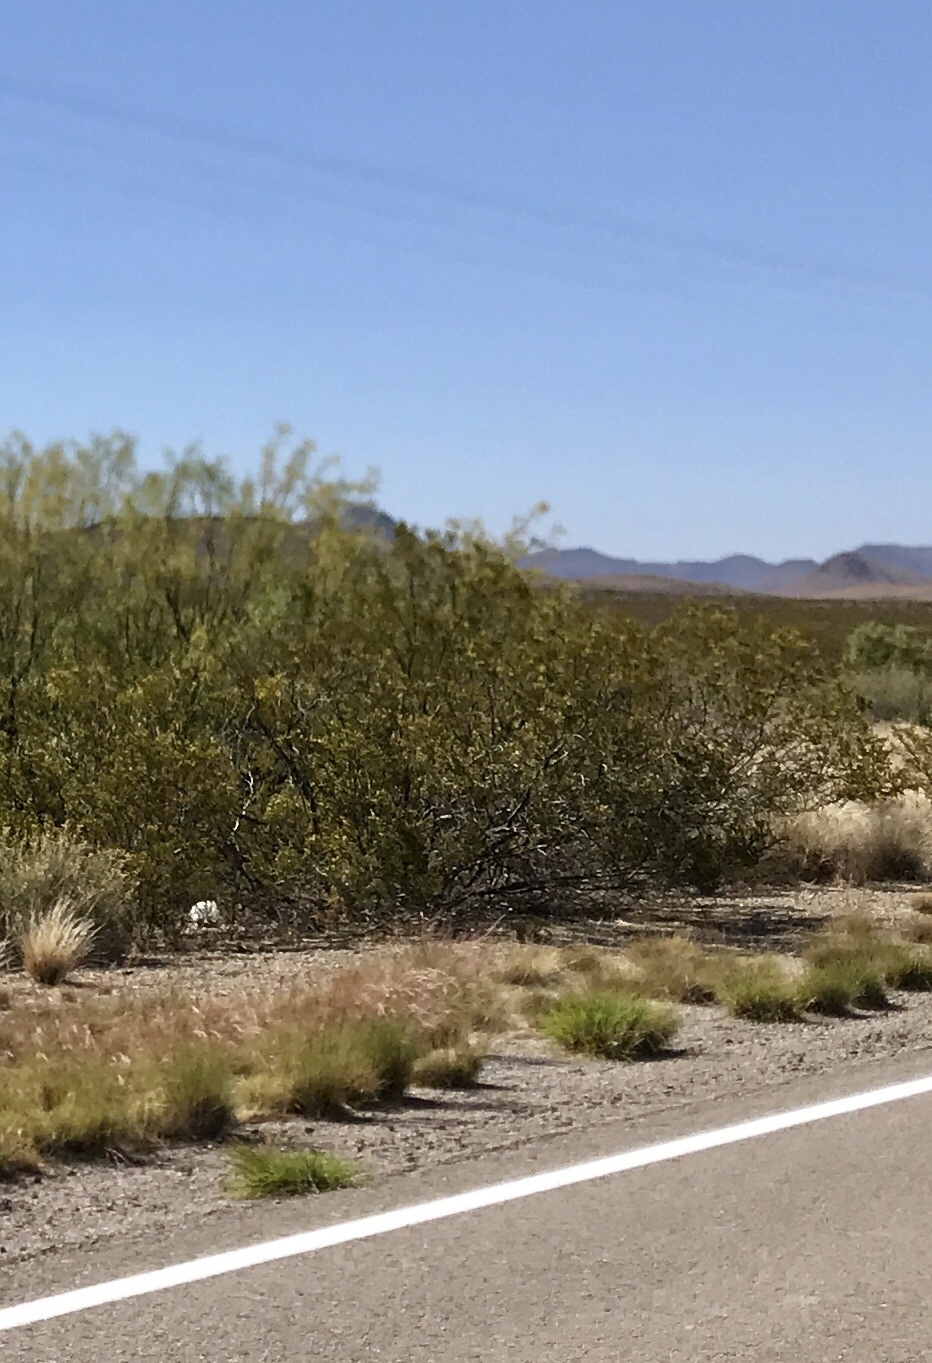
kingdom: Plantae
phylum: Tracheophyta
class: Magnoliopsida
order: Zygophyllales
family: Zygophyllaceae
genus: Larrea
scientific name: Larrea tridentata
